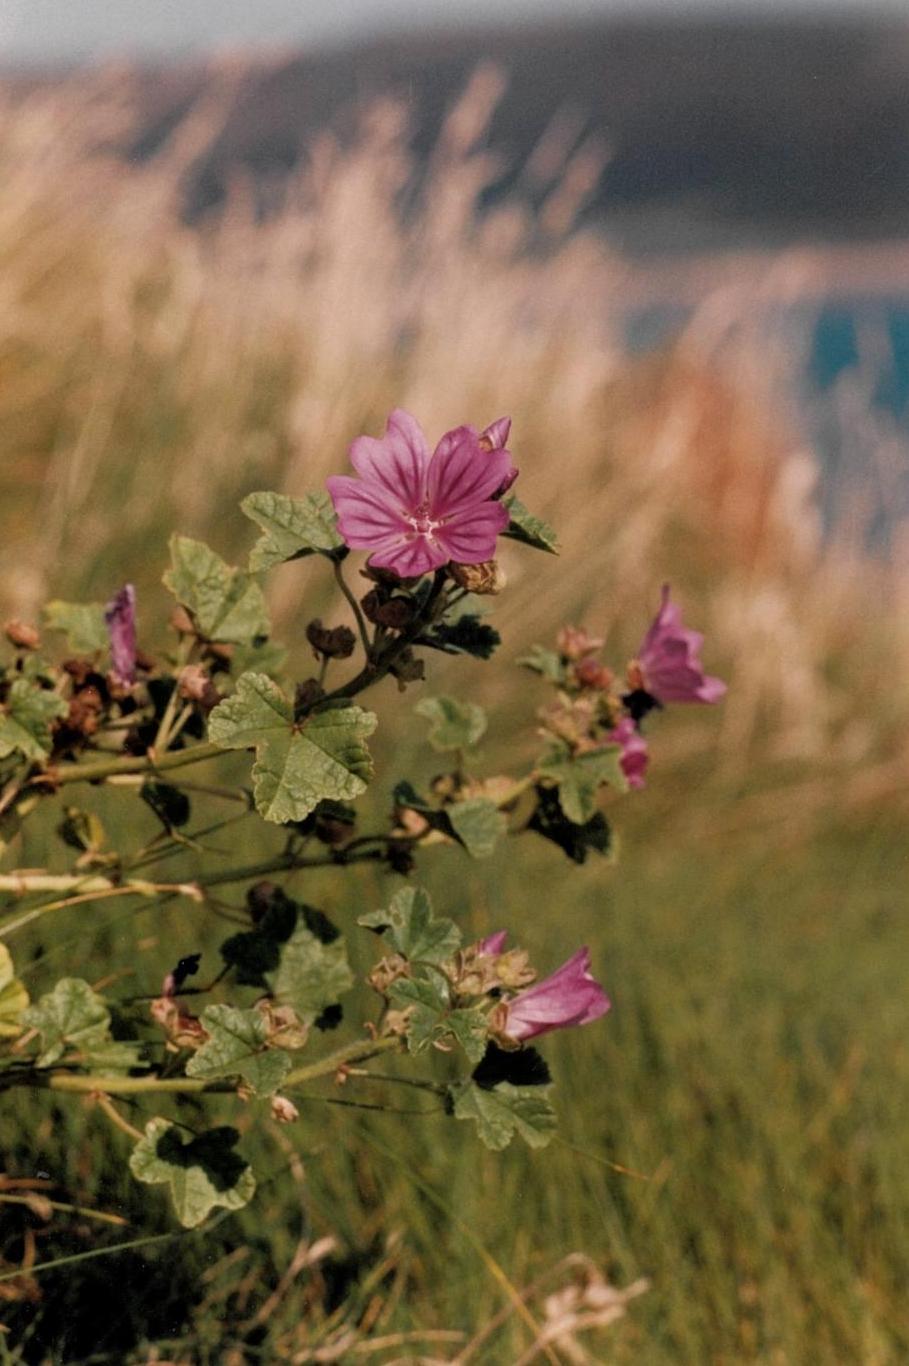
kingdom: Plantae
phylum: Tracheophyta
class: Magnoliopsida
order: Malvales
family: Malvaceae
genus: Malva
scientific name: Malva sylvestris
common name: Common mallow
